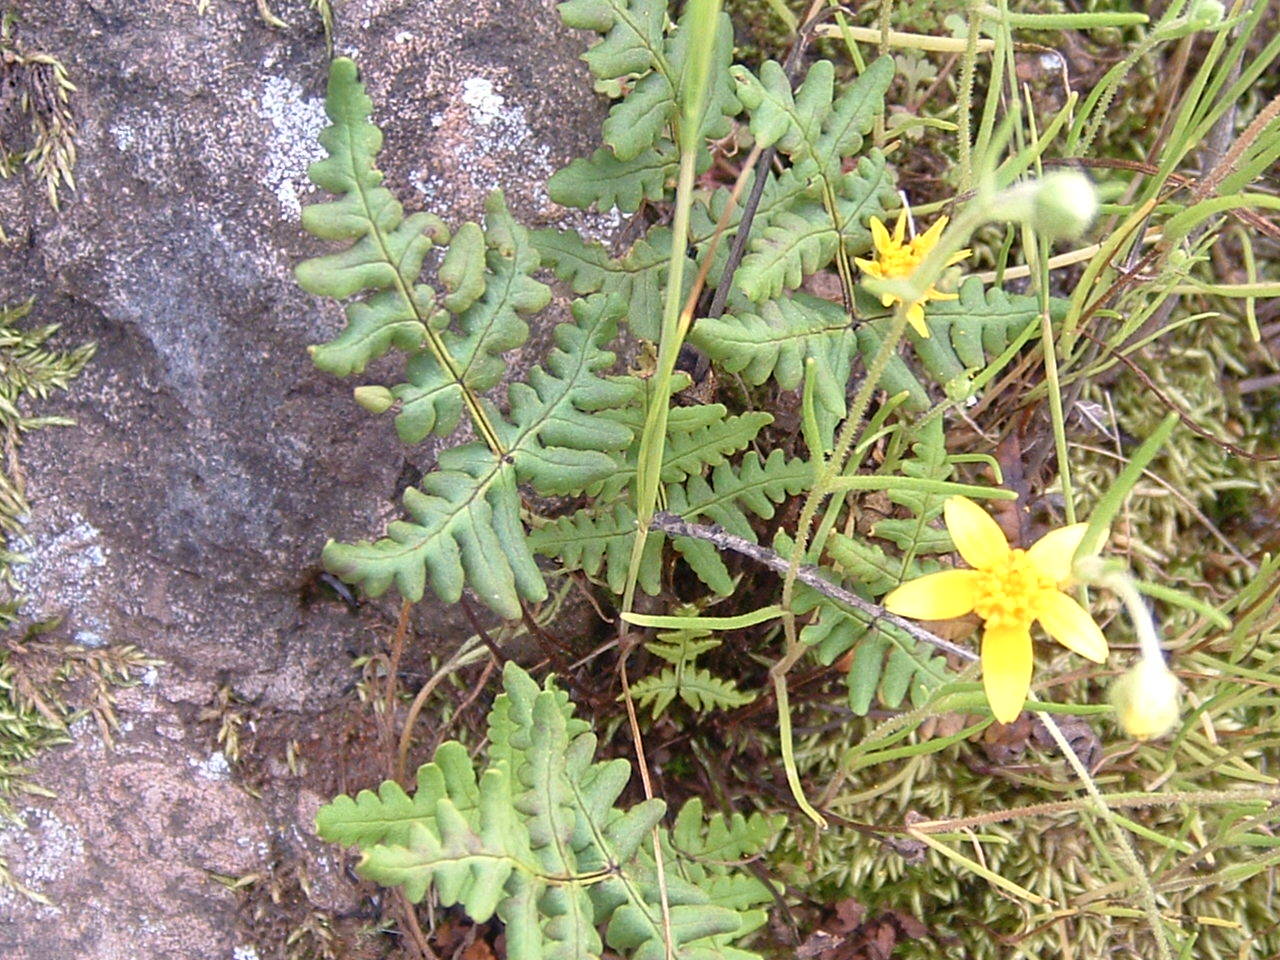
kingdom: Plantae
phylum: Tracheophyta
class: Polypodiopsida
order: Polypodiales
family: Pteridaceae
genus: Pentagramma
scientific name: Pentagramma triangularis
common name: Gold fern
